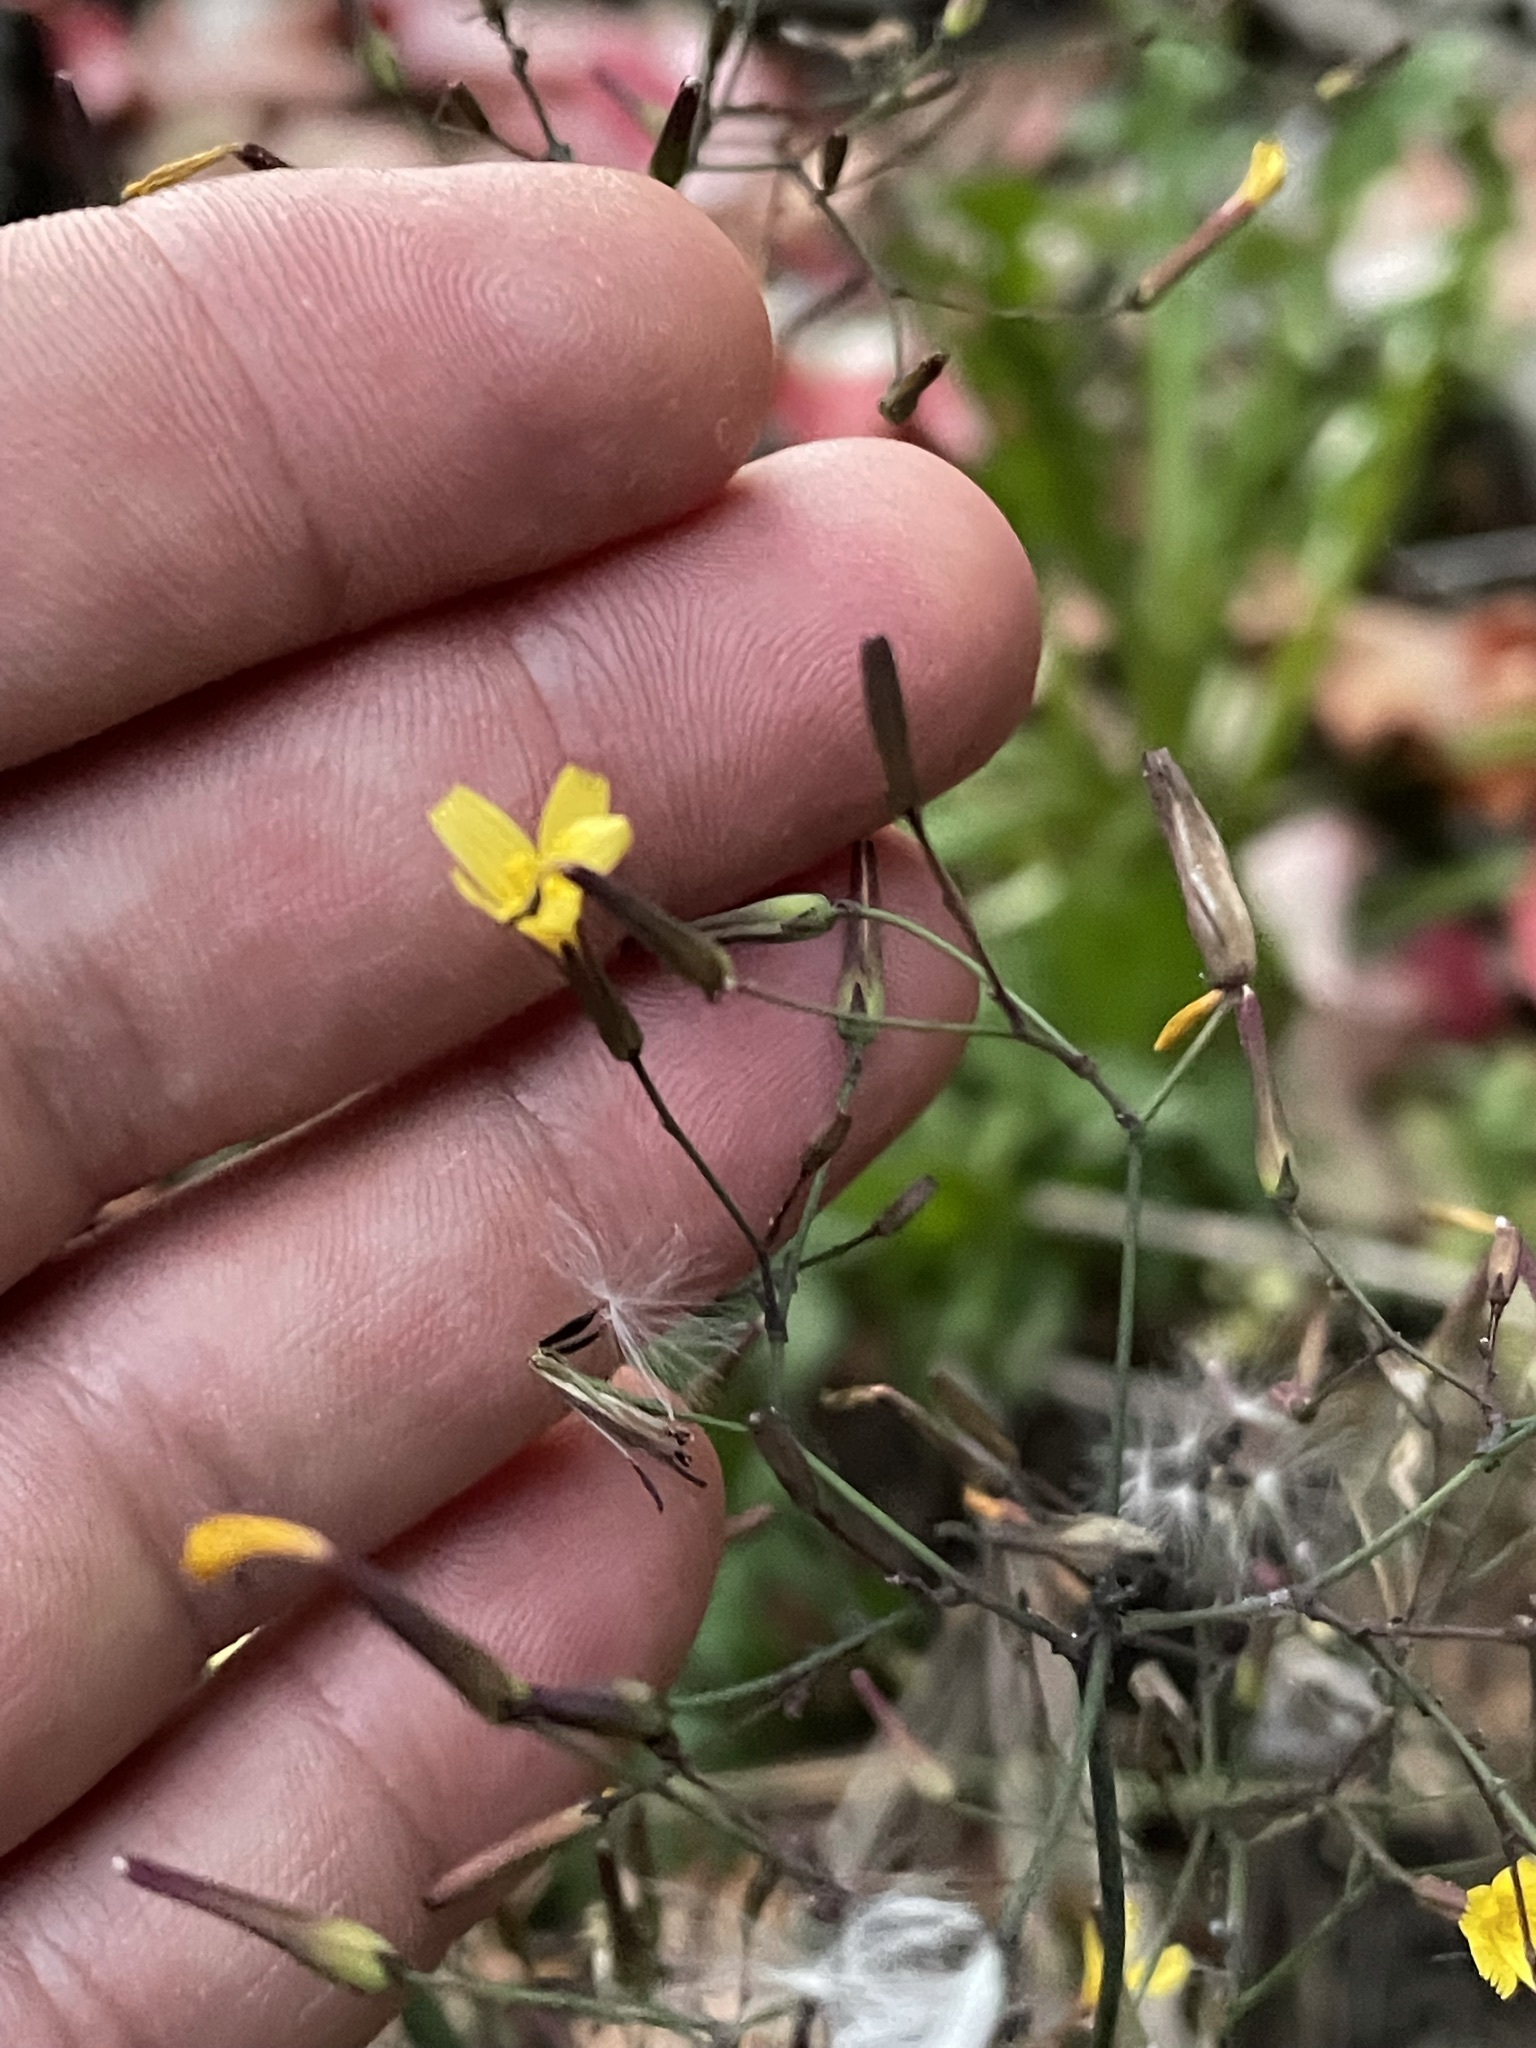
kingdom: Plantae
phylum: Tracheophyta
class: Magnoliopsida
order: Asterales
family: Asteraceae
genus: Mycelis
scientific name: Mycelis muralis
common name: Wall lettuce
